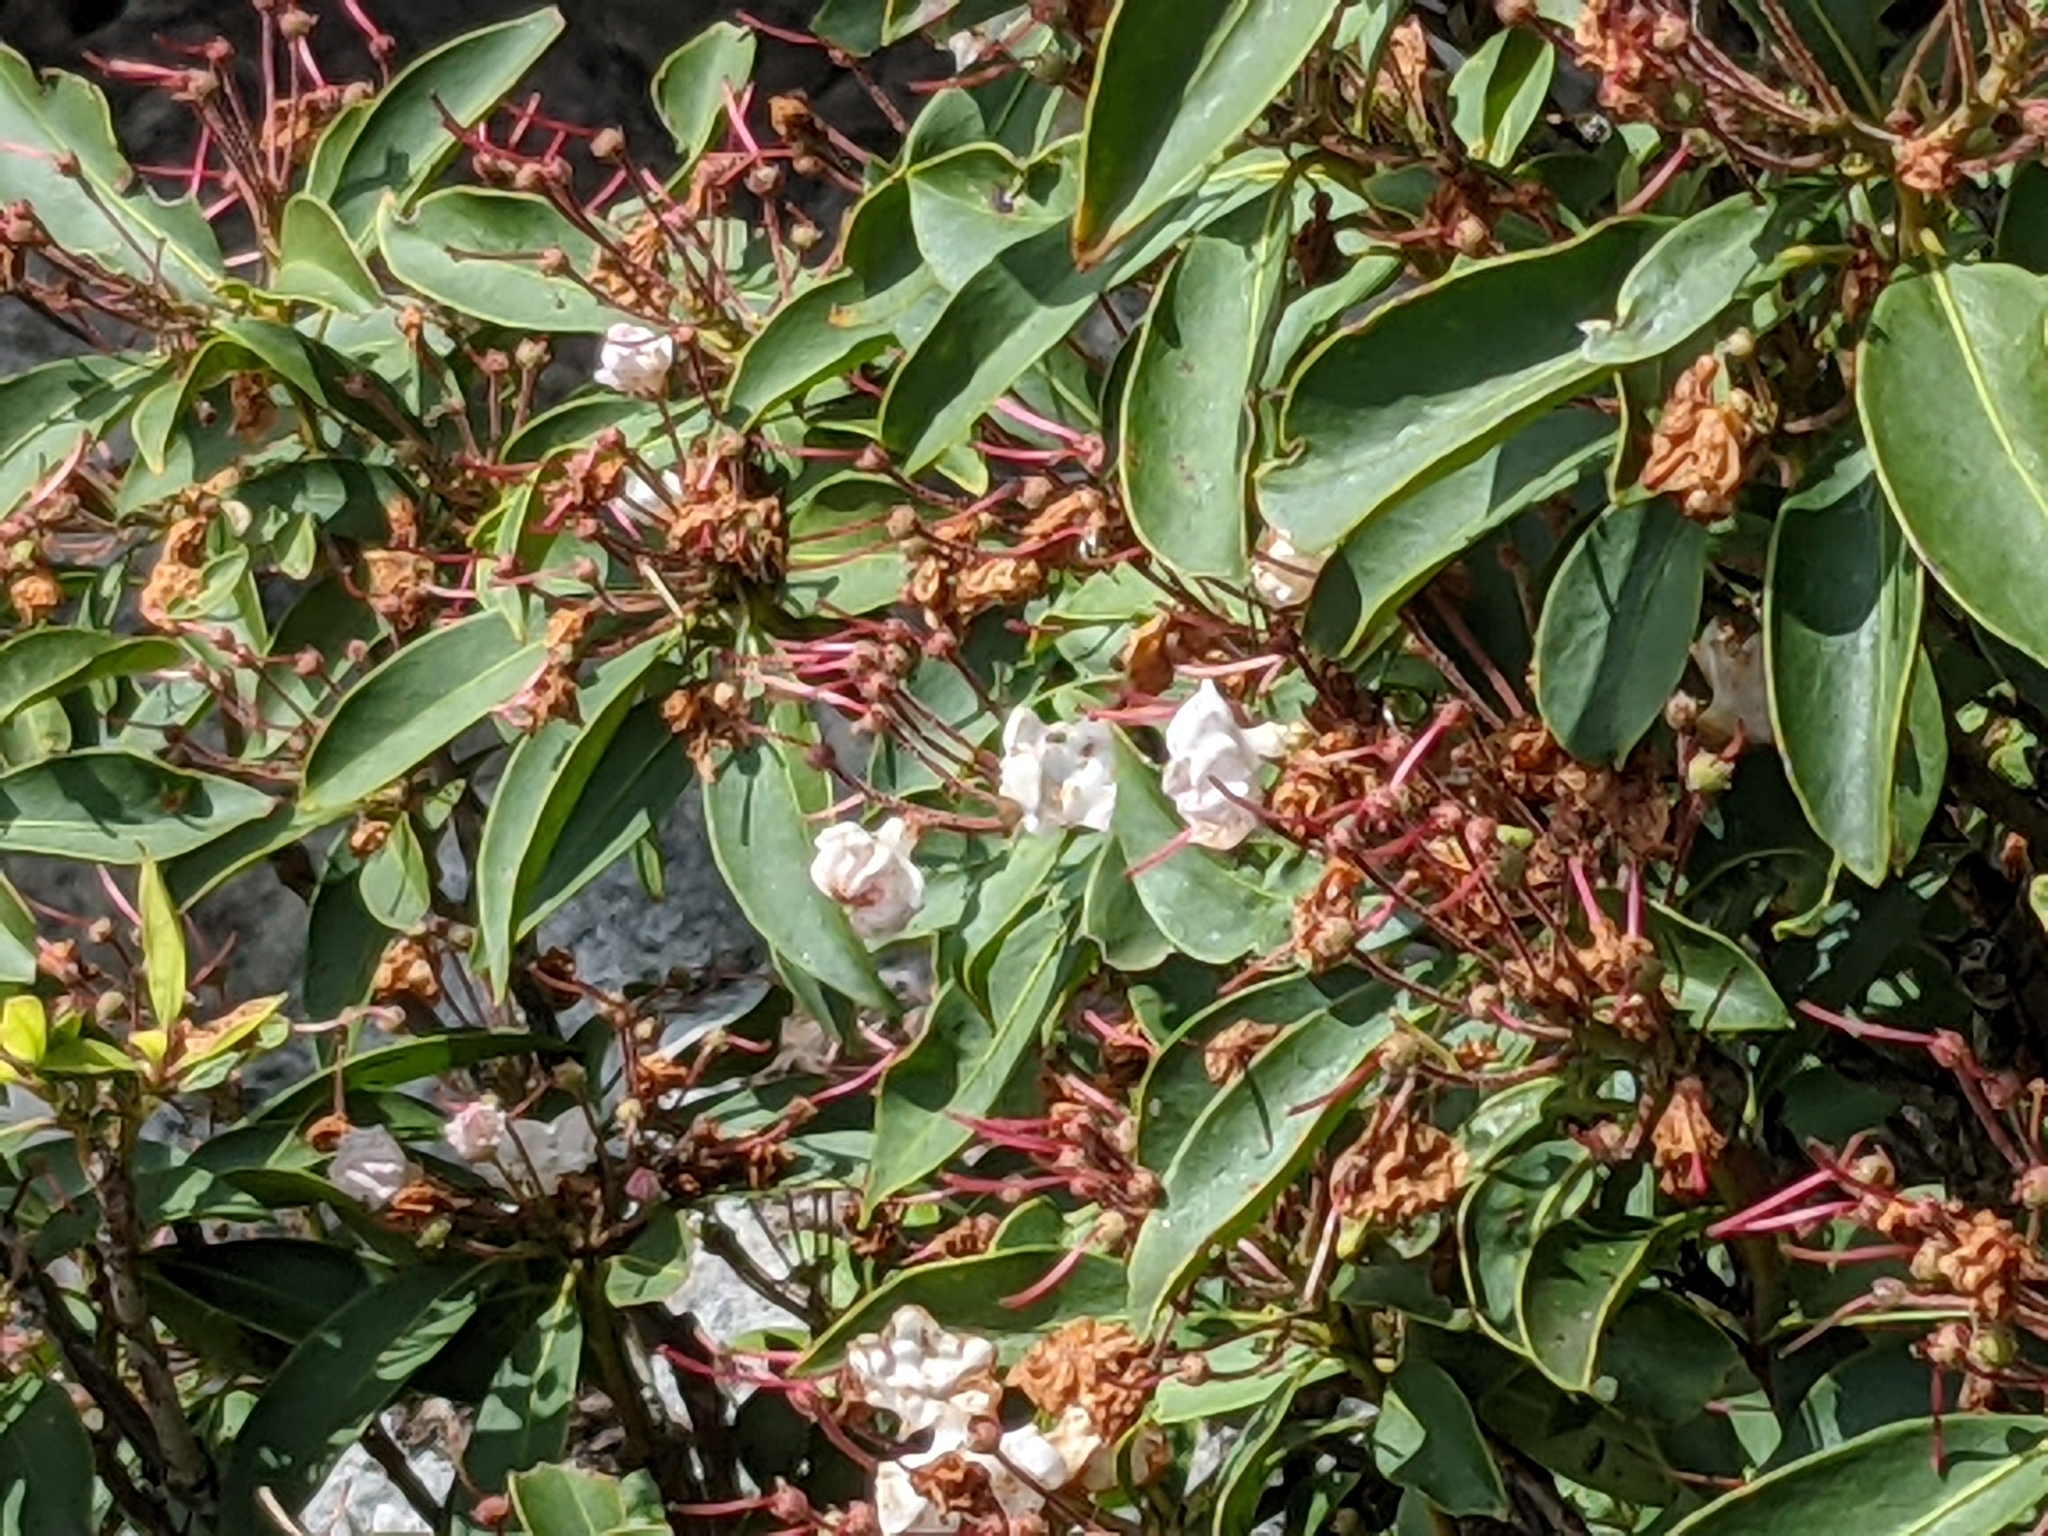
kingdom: Plantae
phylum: Tracheophyta
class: Magnoliopsida
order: Ericales
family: Ericaceae
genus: Kalmia
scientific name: Kalmia latifolia
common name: Mountain-laurel
